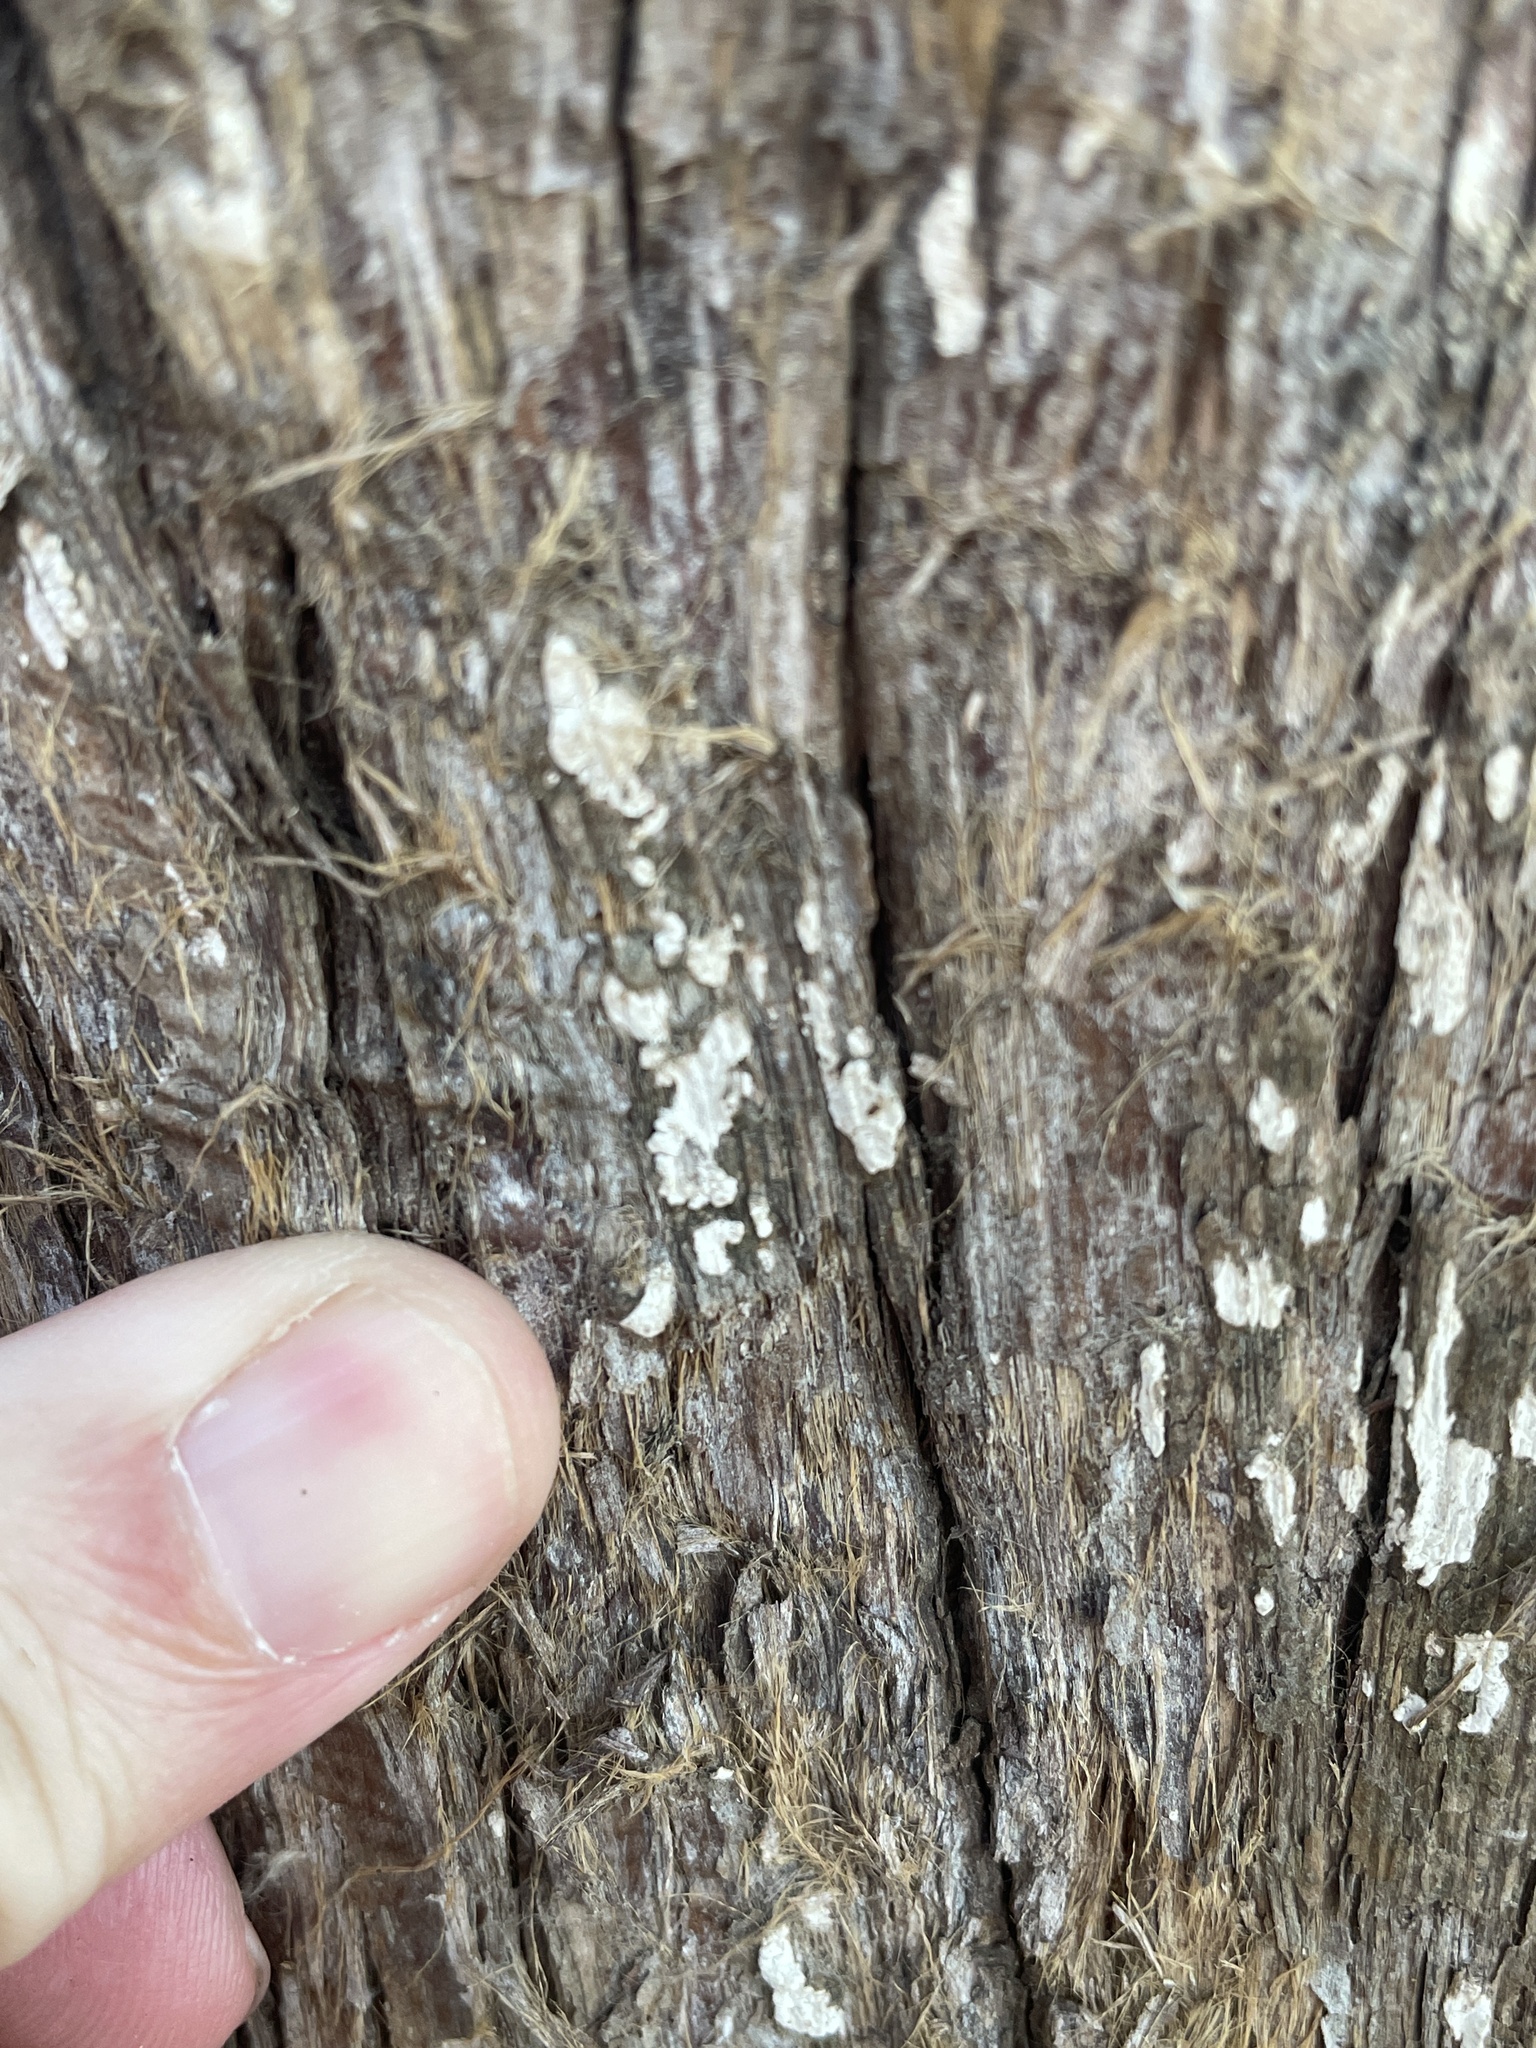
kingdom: Fungi
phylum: Basidiomycota
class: Agaricomycetes
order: Agaricales
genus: Dendrothele
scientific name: Dendrothele nivosa
